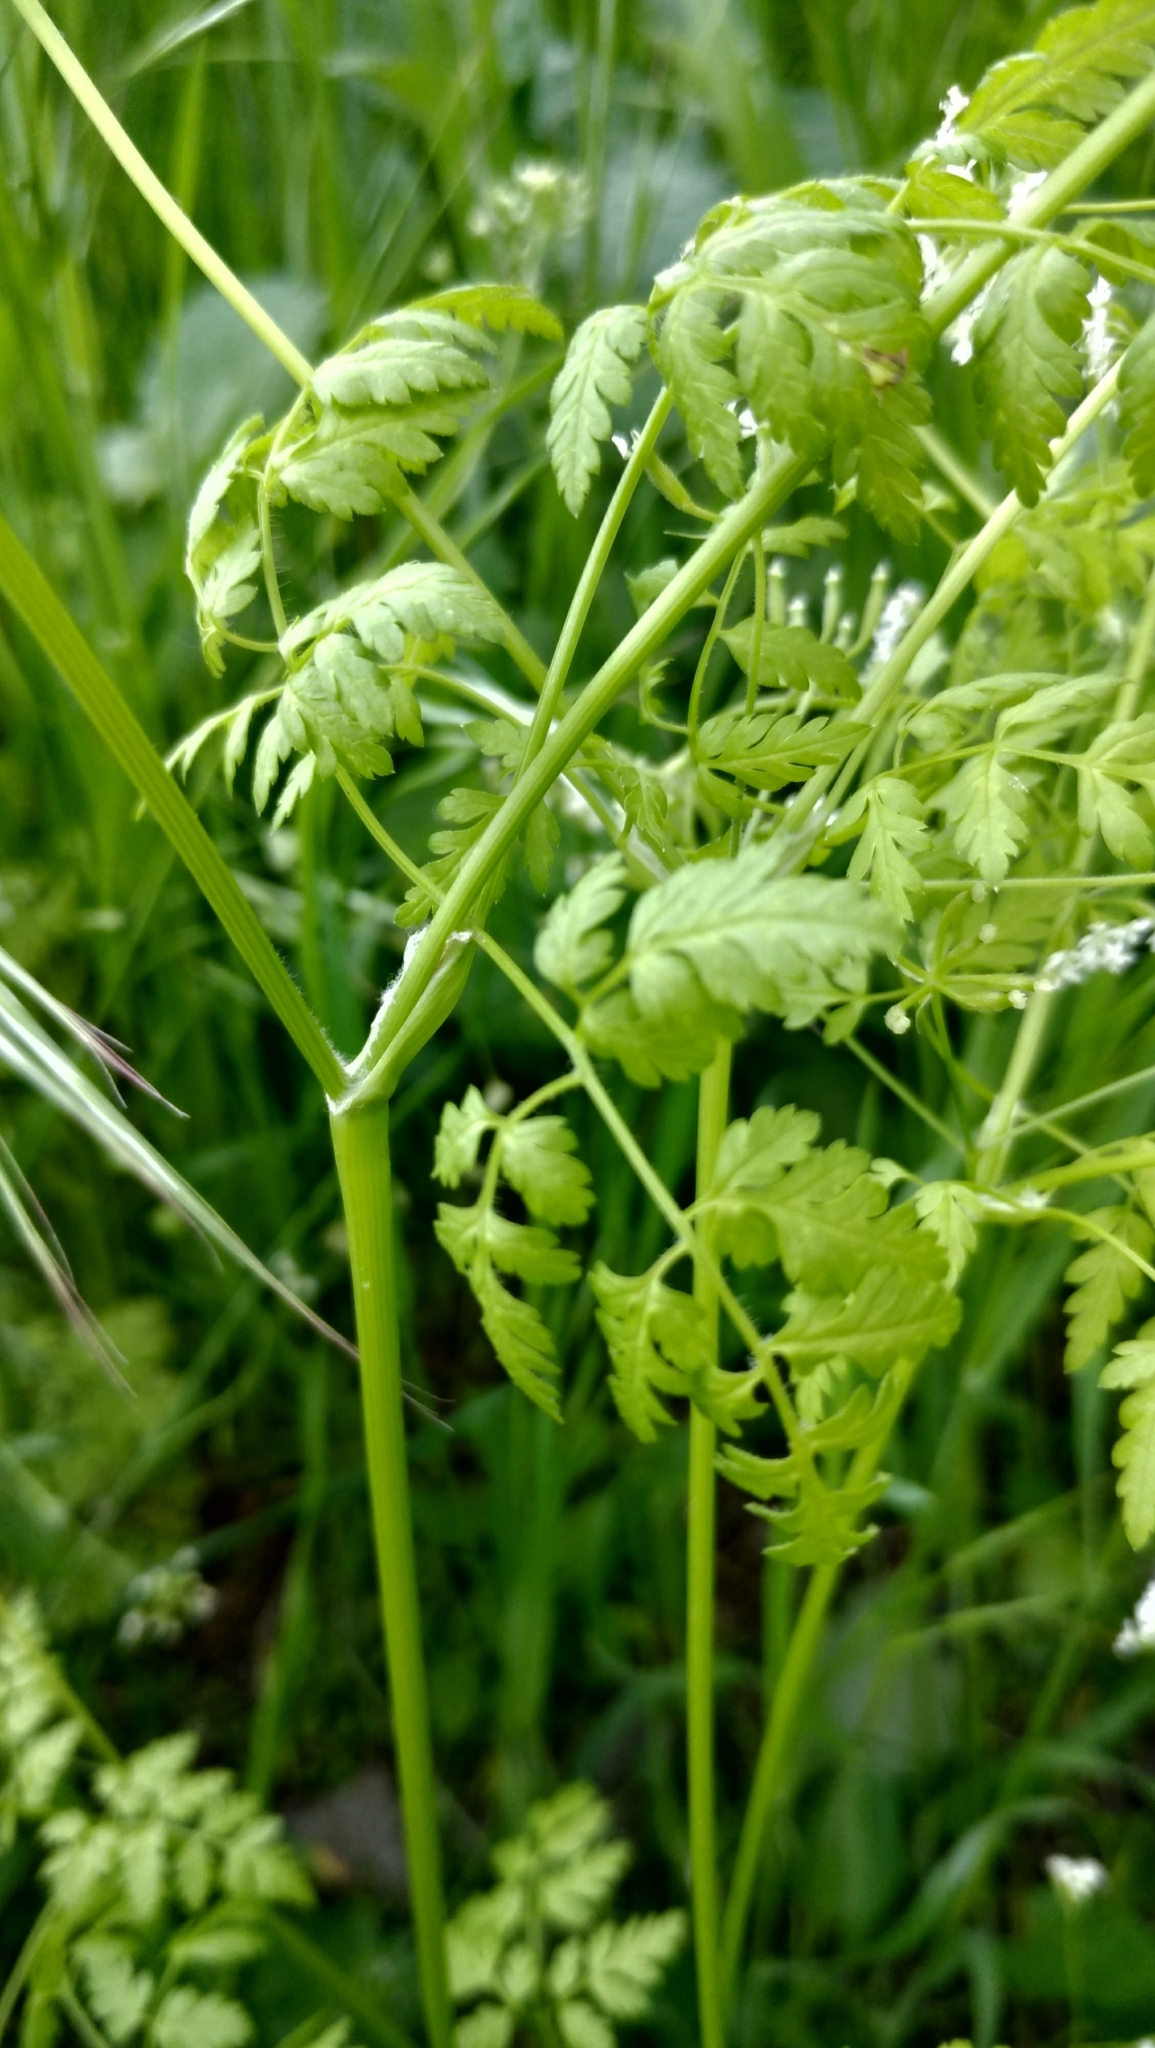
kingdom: Plantae
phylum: Tracheophyta
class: Magnoliopsida
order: Apiales
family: Apiaceae
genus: Anthriscus
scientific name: Anthriscus cerefolium
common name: Garden chervil
